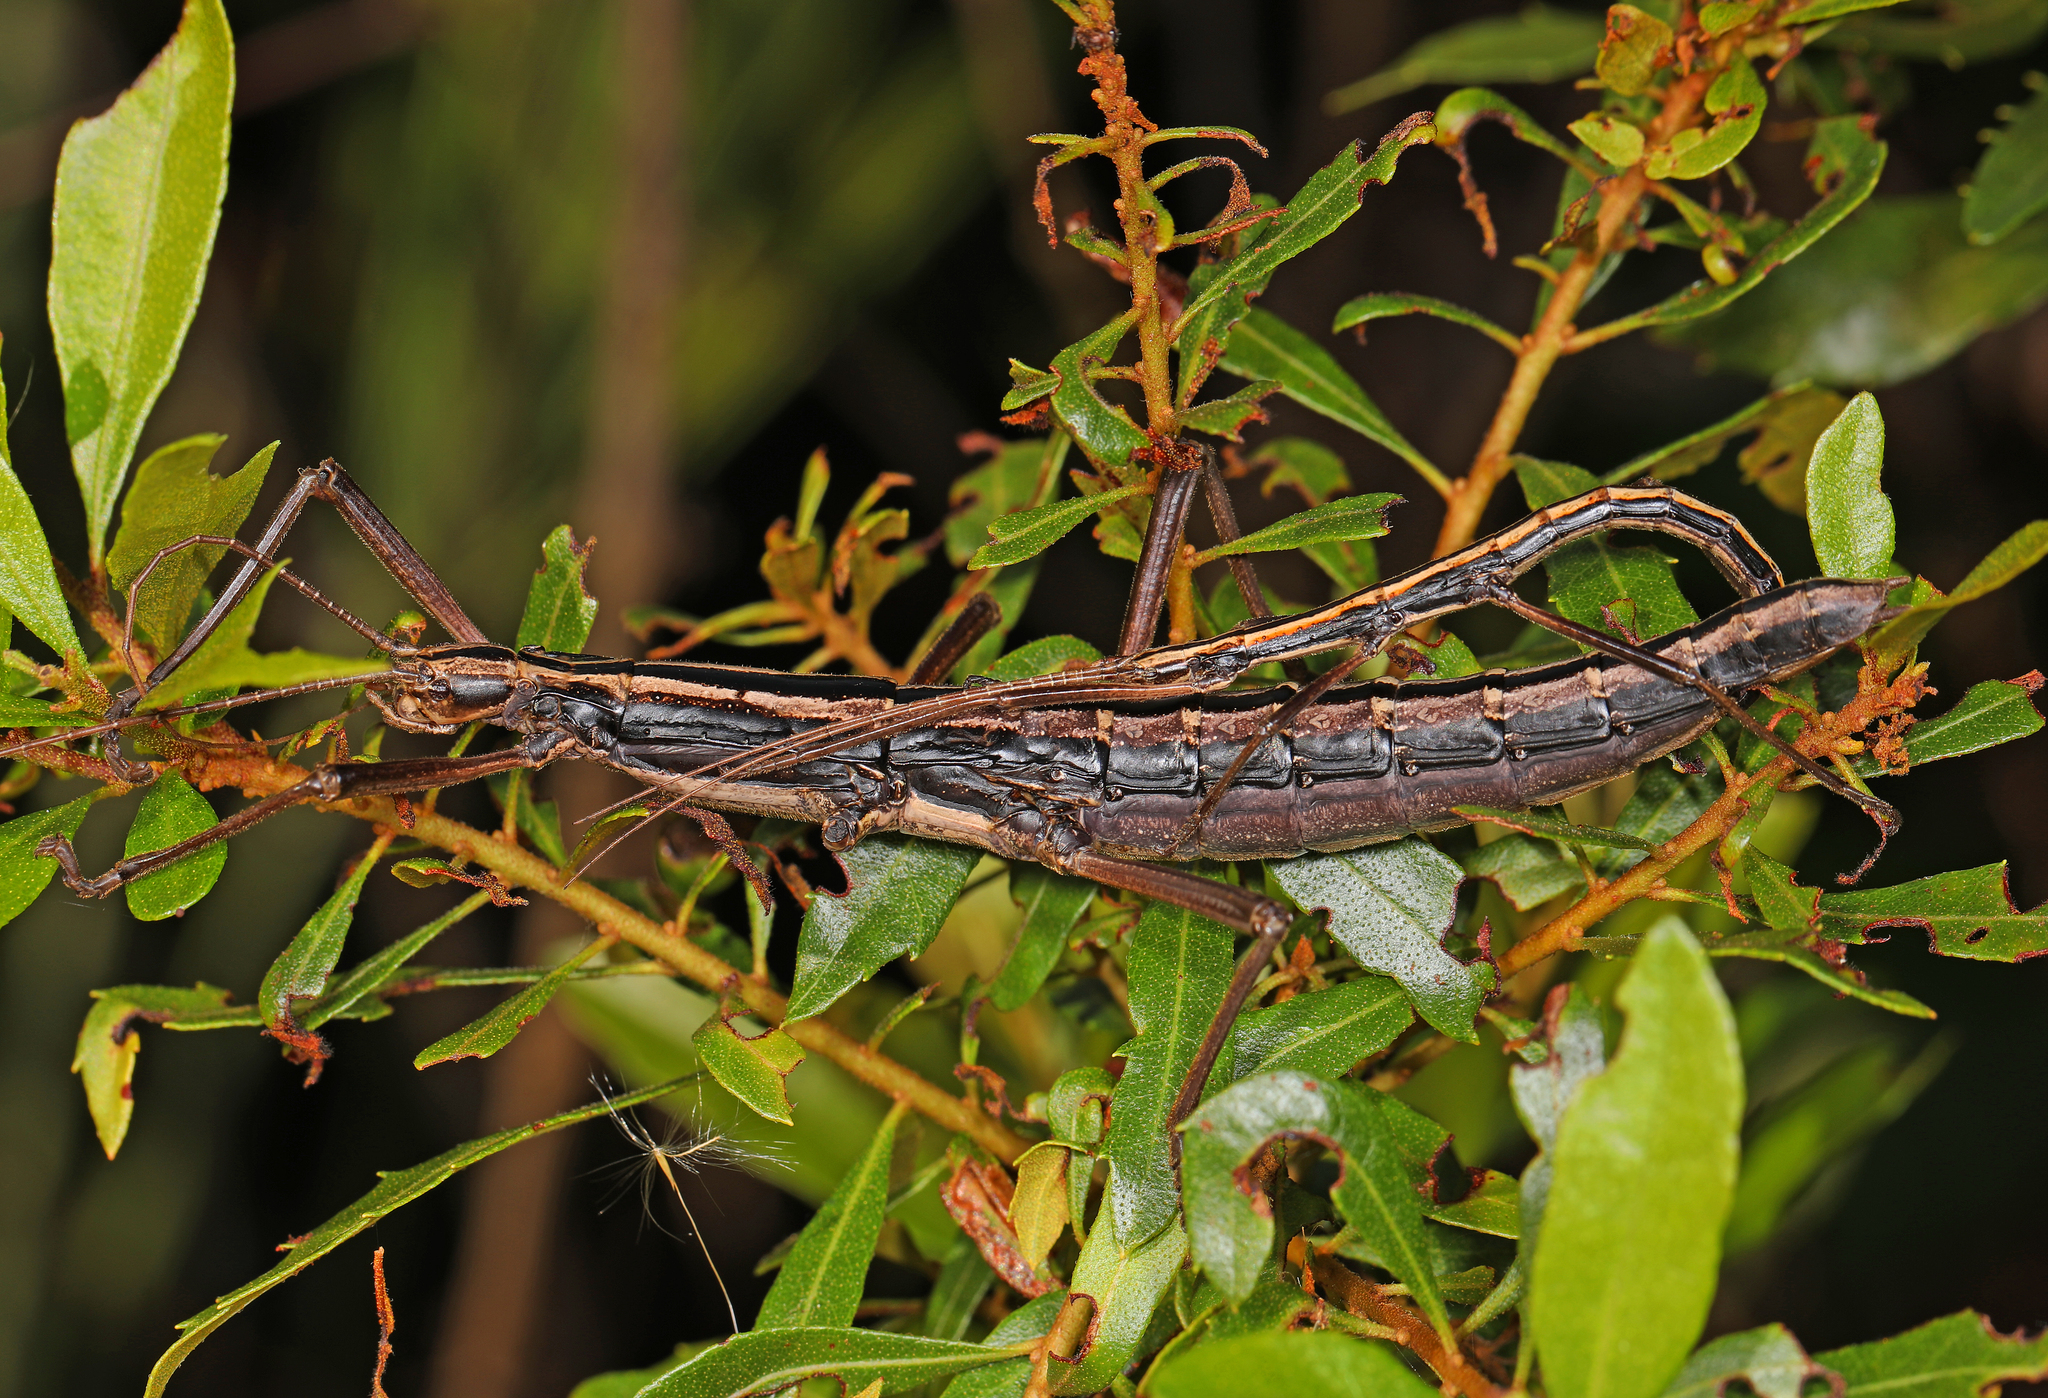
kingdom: Animalia
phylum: Arthropoda
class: Insecta
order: Phasmida
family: Pseudophasmatidae
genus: Anisomorpha
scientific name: Anisomorpha buprestoides
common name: Florida stick insect
